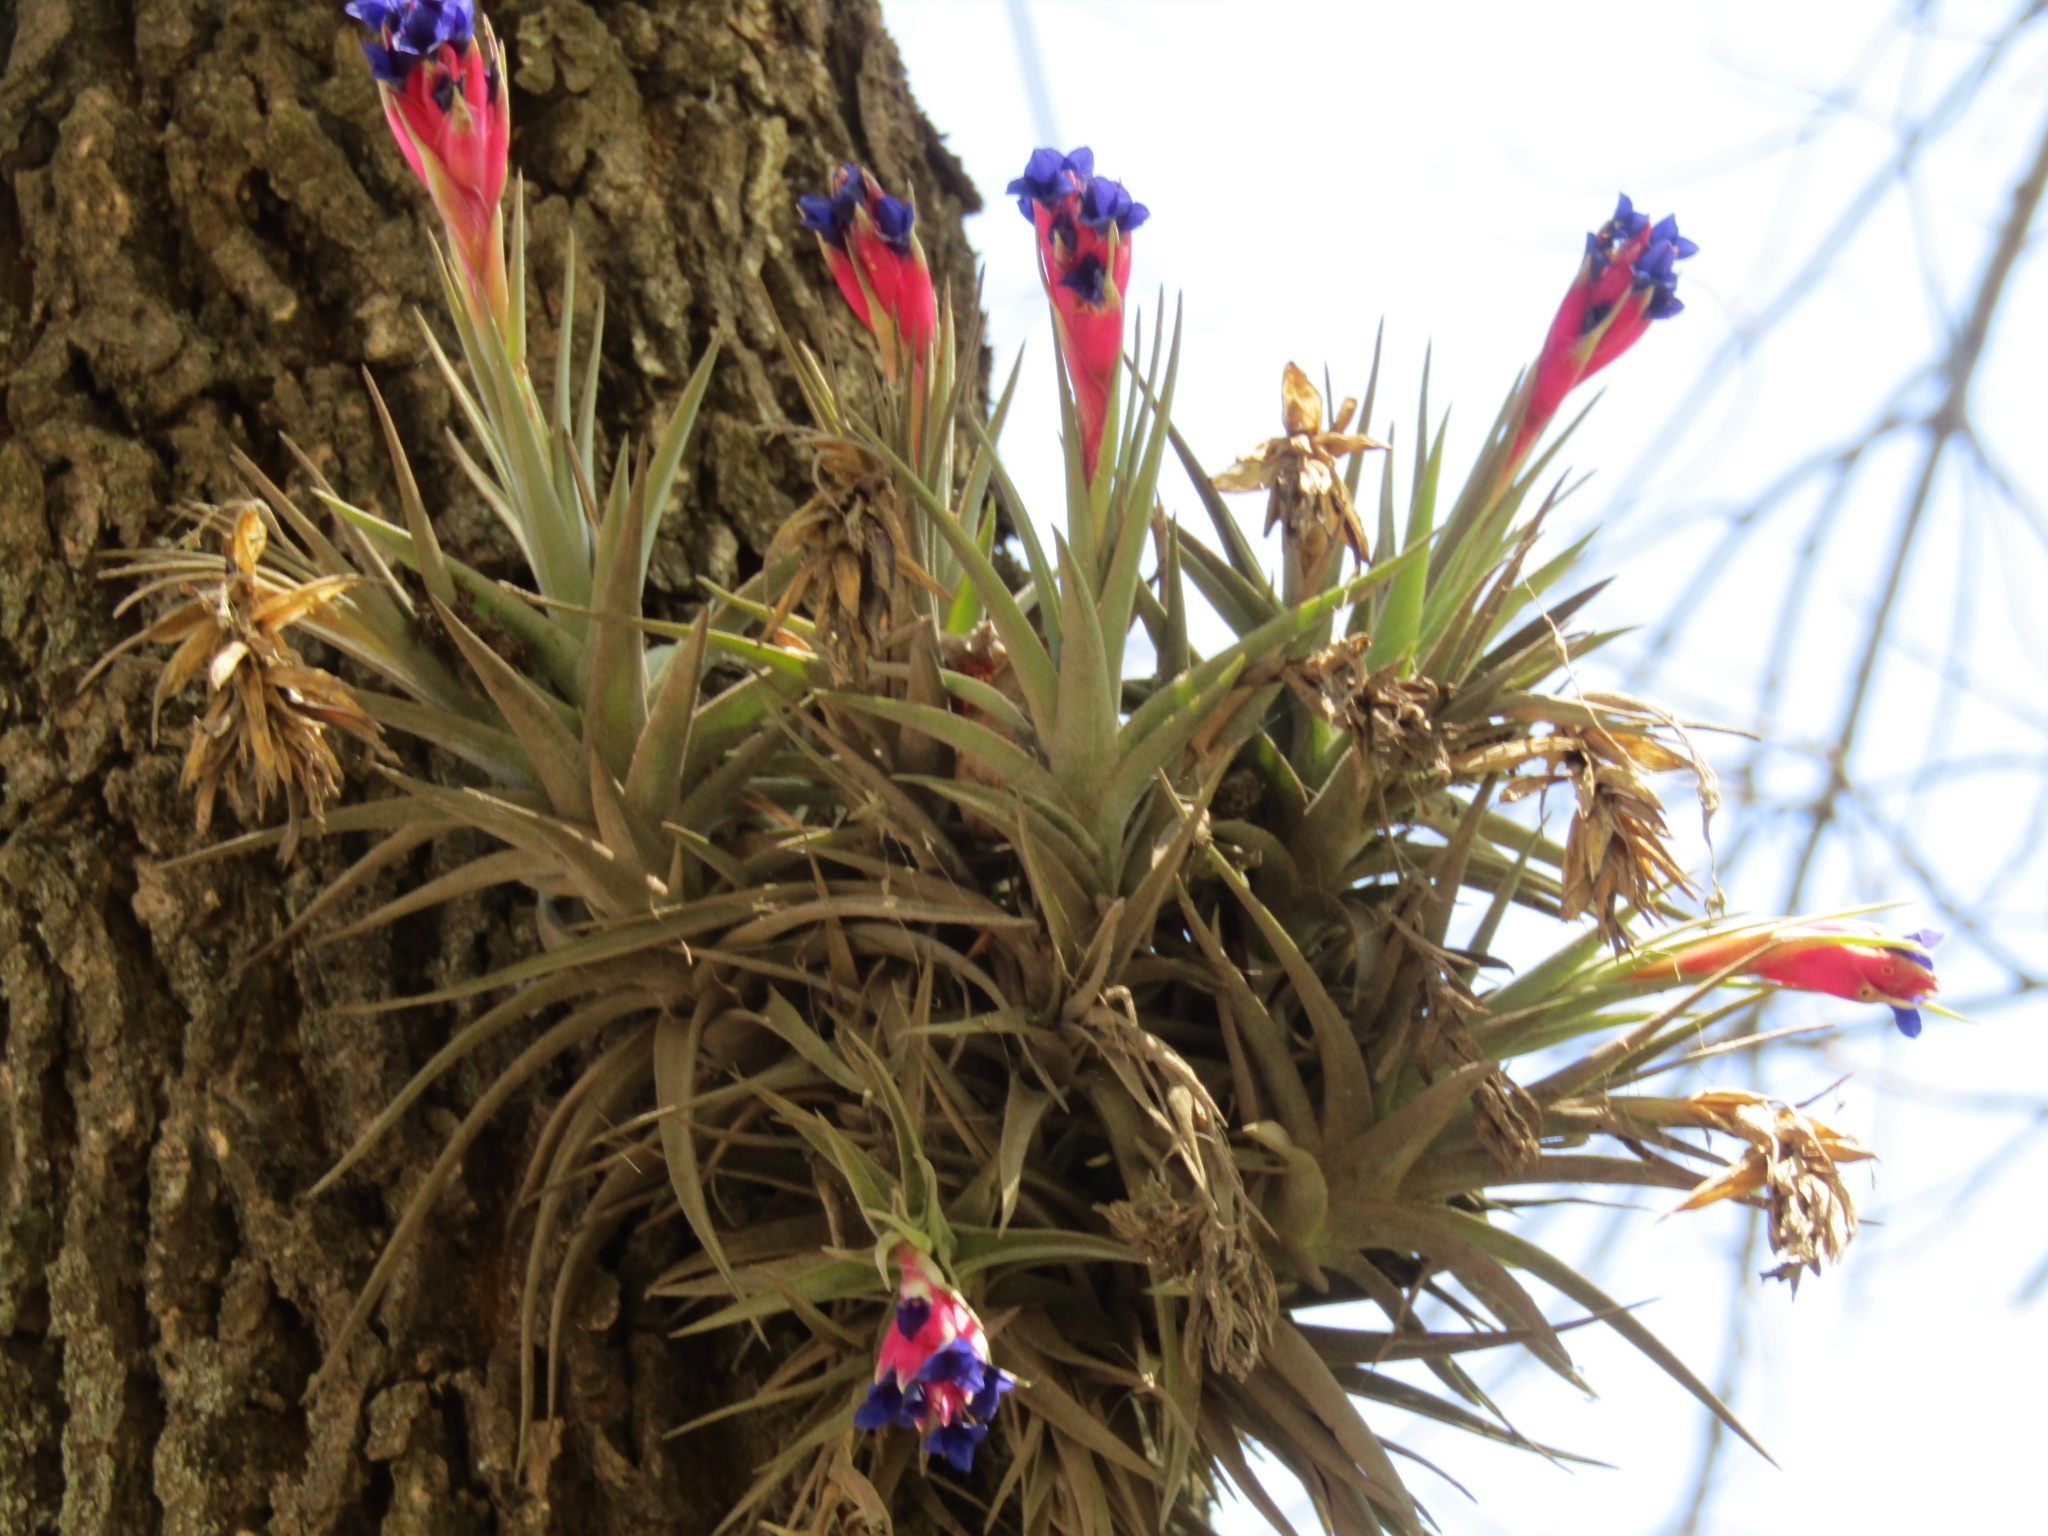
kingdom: Plantae
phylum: Tracheophyta
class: Liliopsida
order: Poales
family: Bromeliaceae
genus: Tillandsia
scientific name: Tillandsia aeranthos
